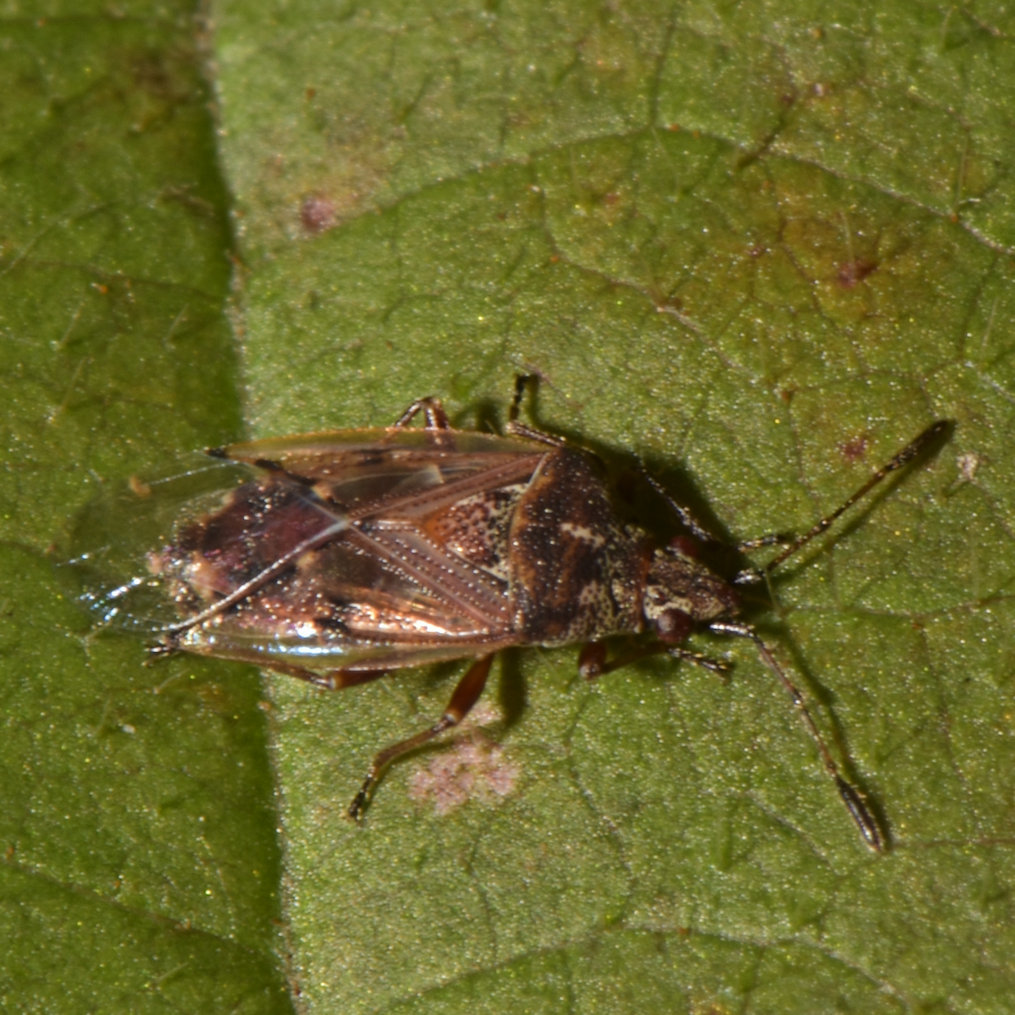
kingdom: Animalia
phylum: Arthropoda
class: Insecta
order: Hemiptera
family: Lygaeidae
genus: Kleidocerys
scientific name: Kleidocerys resedae
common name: Birch catkin bug
